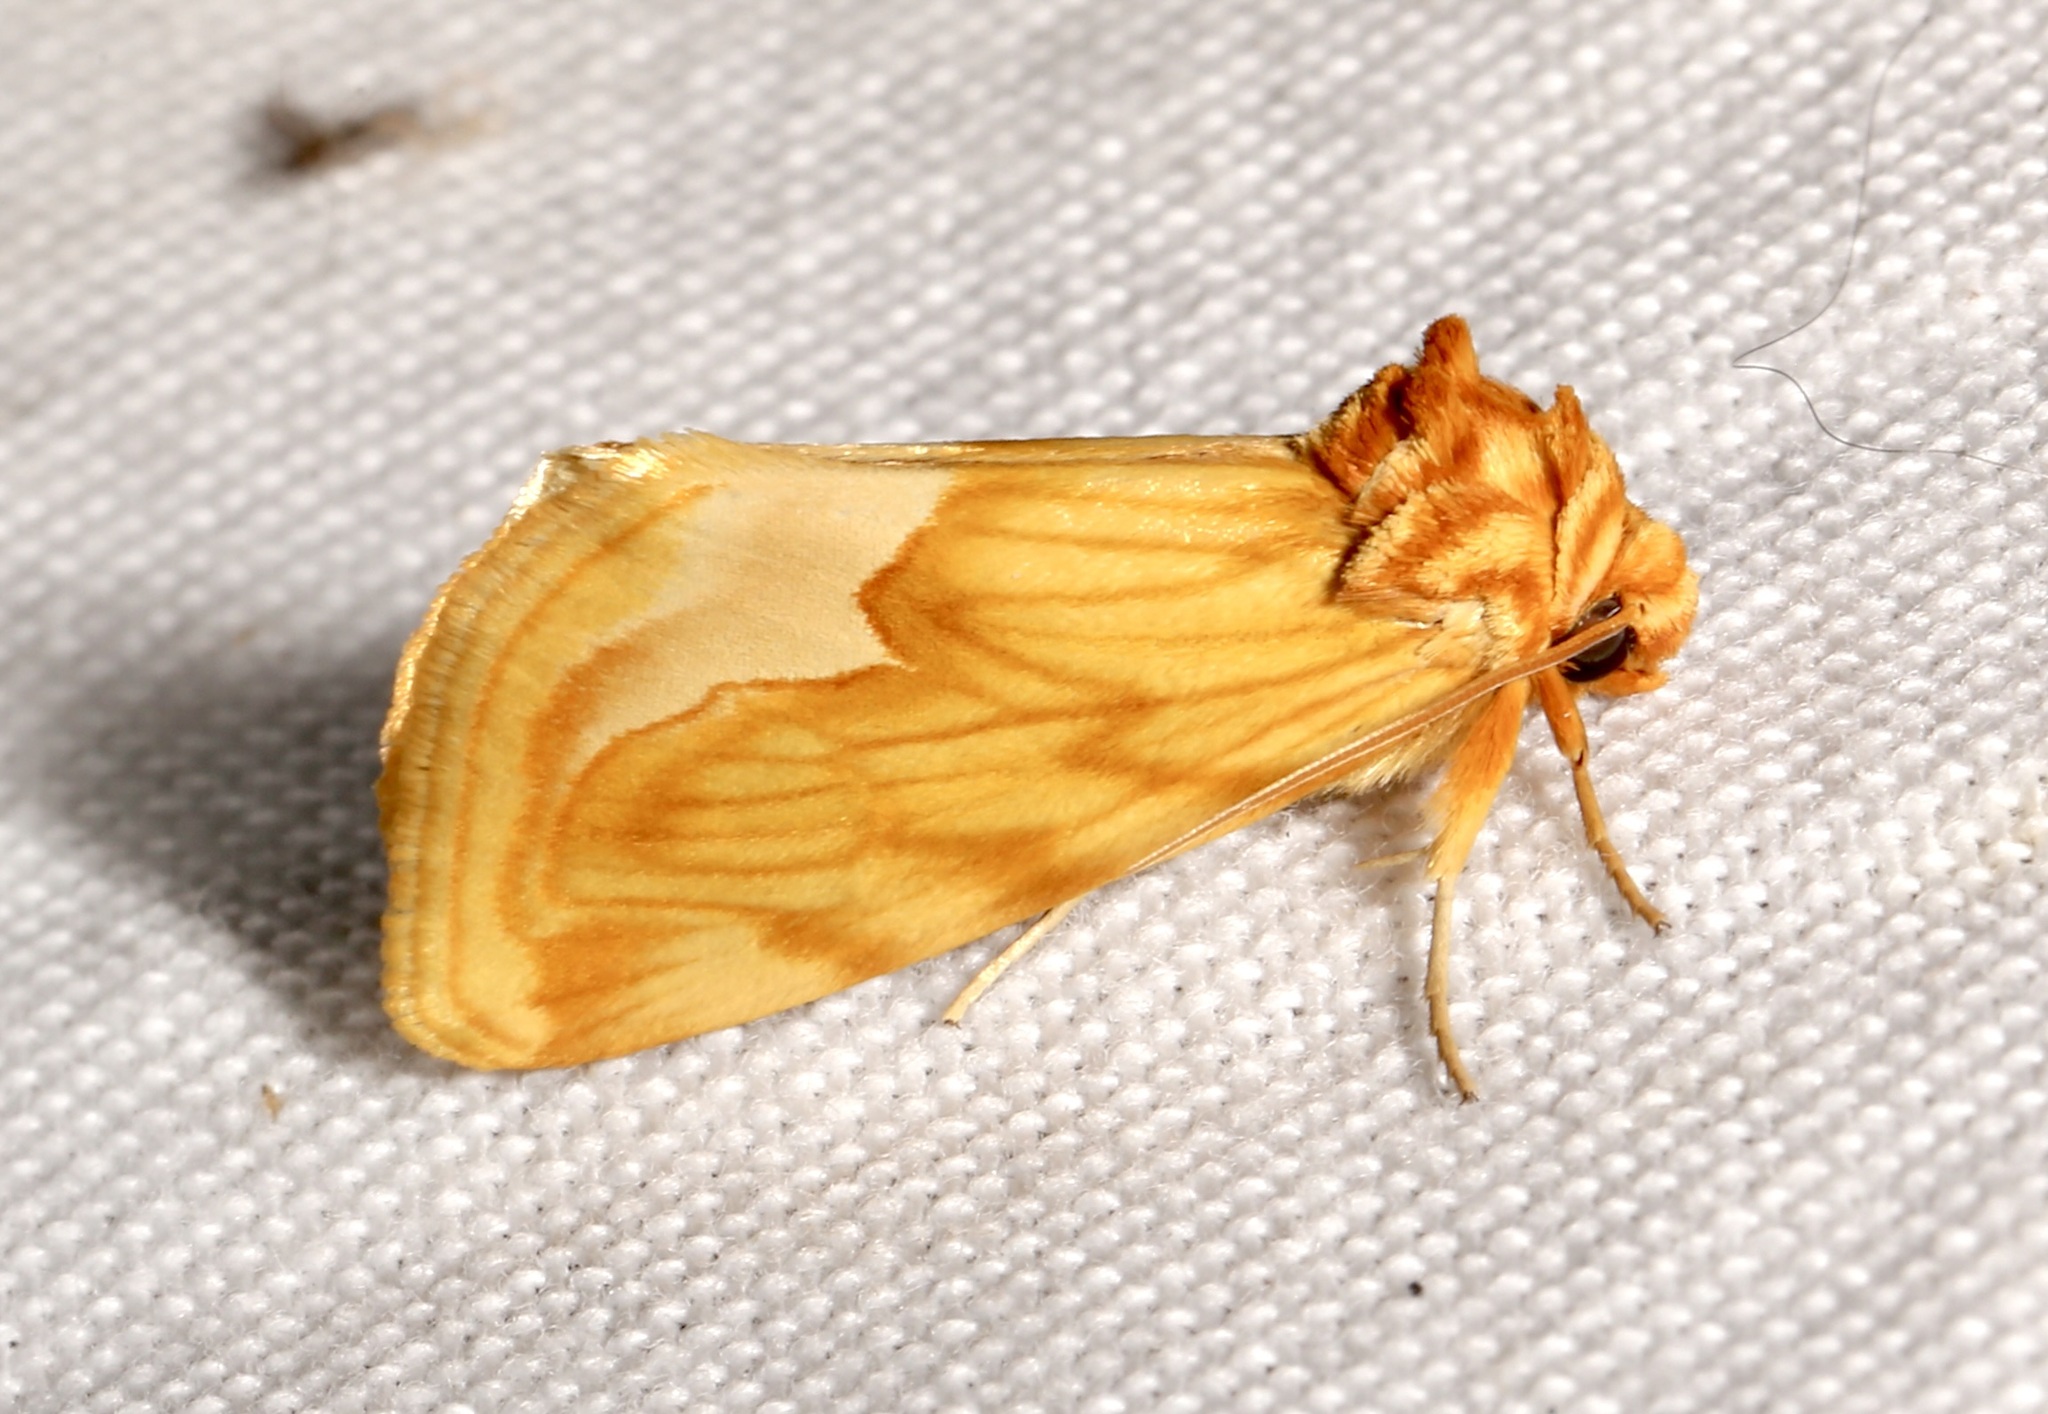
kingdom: Animalia
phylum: Arthropoda
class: Insecta
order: Lepidoptera
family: Noctuidae
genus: Cirrhophanus
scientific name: Cirrhophanus dyari
